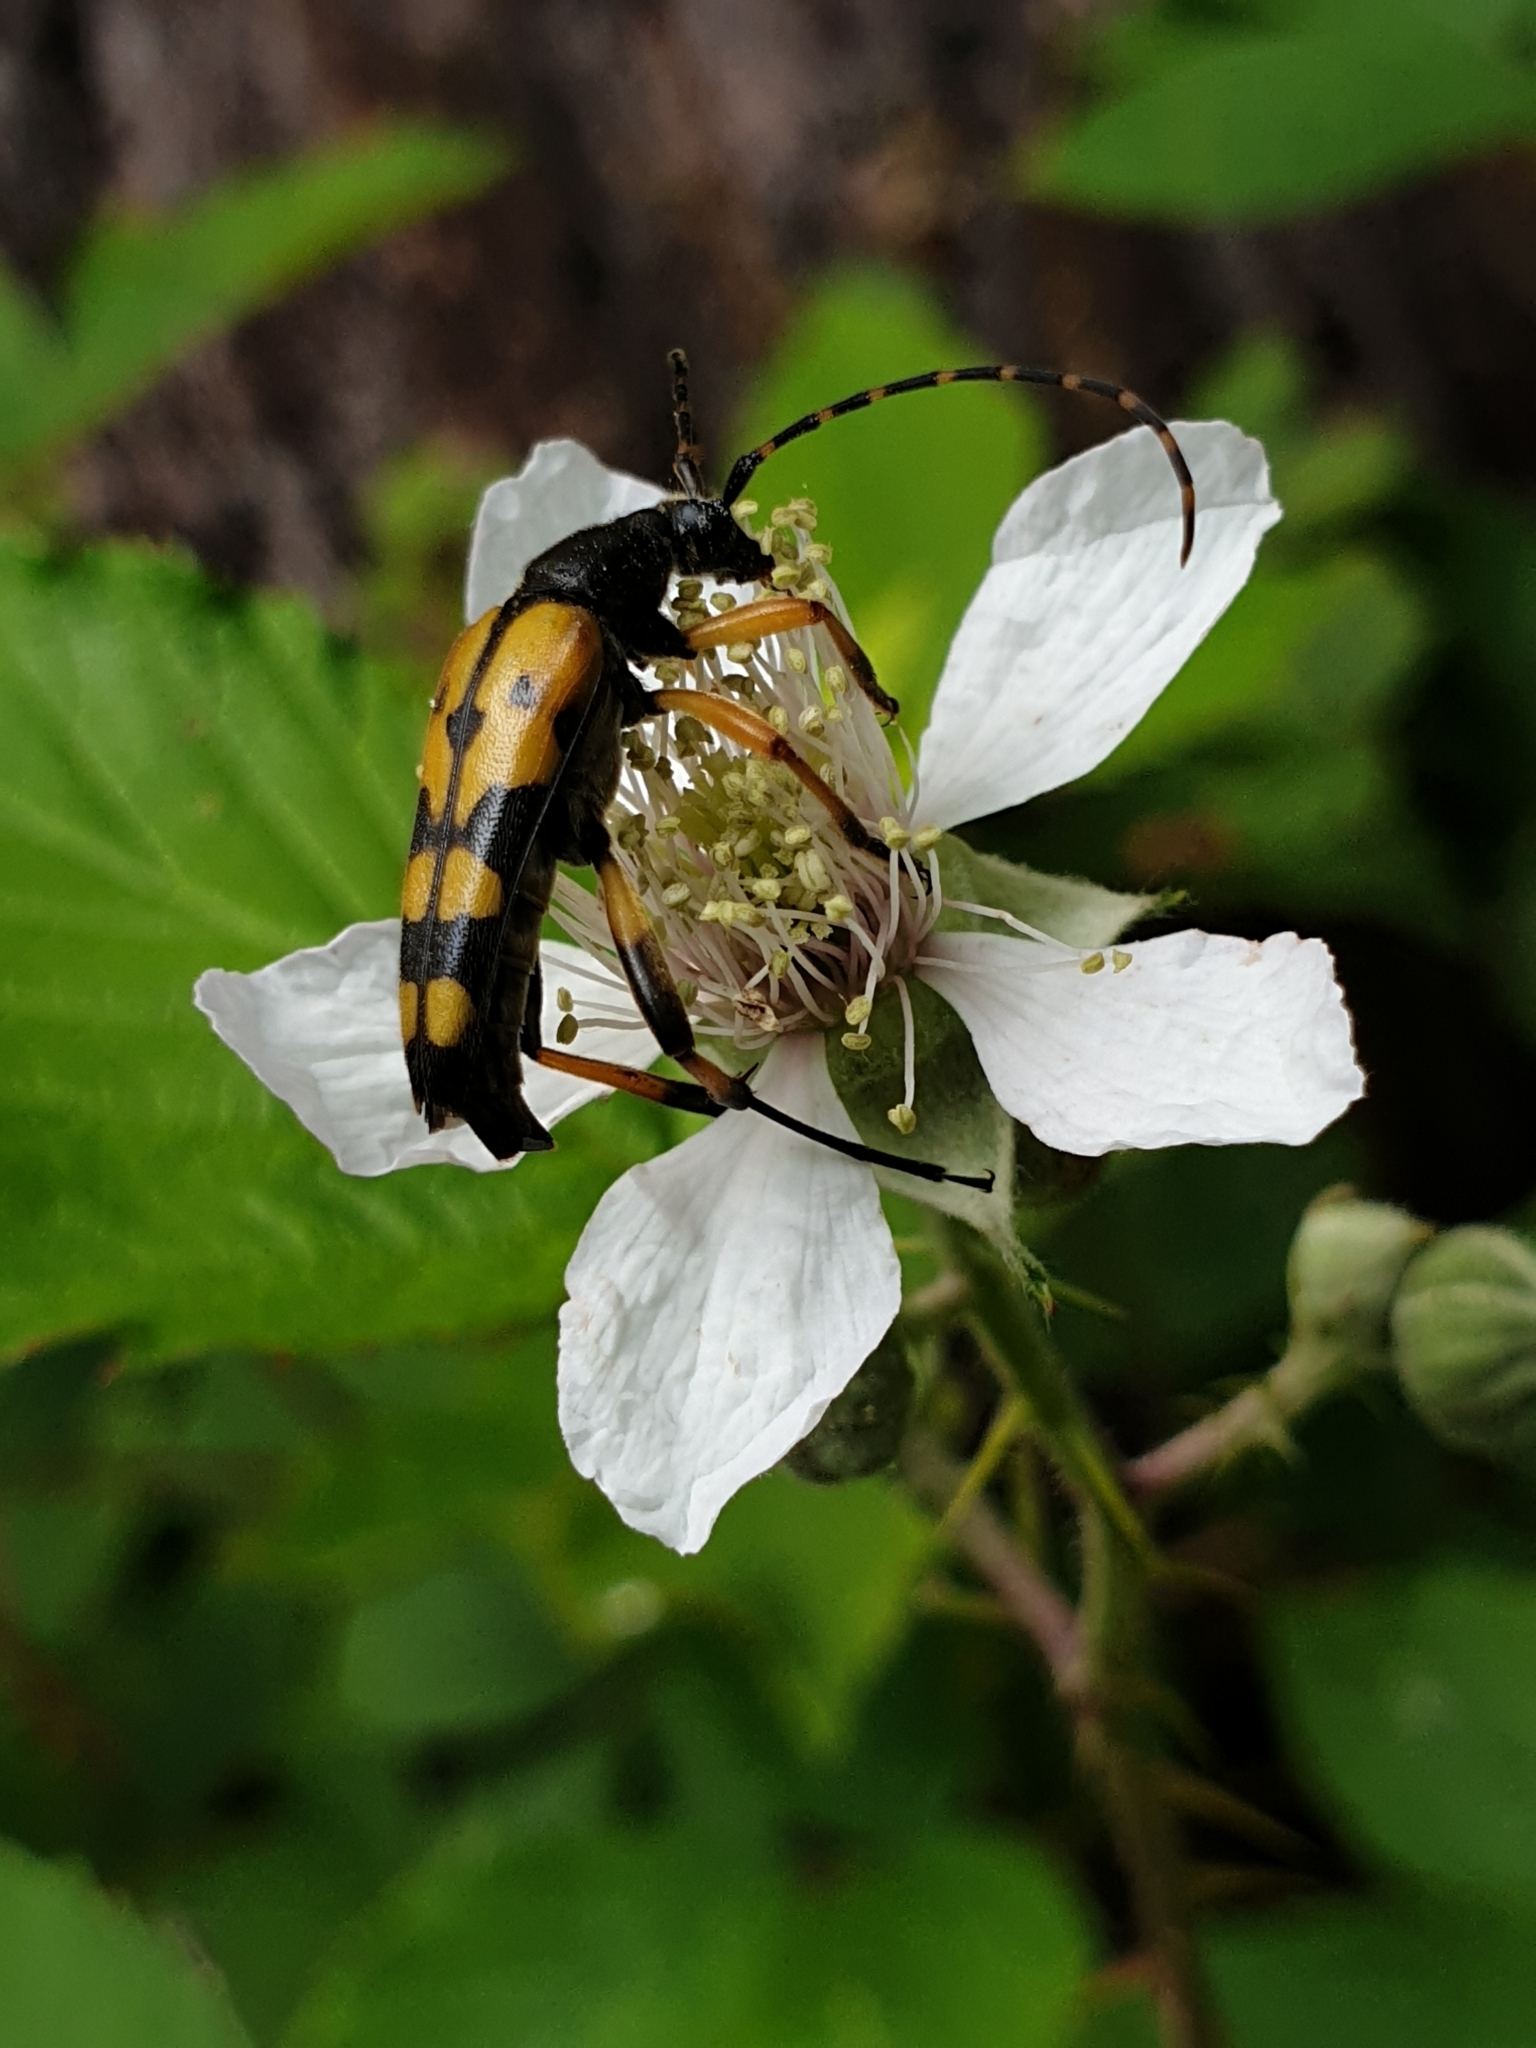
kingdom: Animalia
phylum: Arthropoda
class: Insecta
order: Coleoptera
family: Cerambycidae
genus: Rutpela
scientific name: Rutpela maculata
